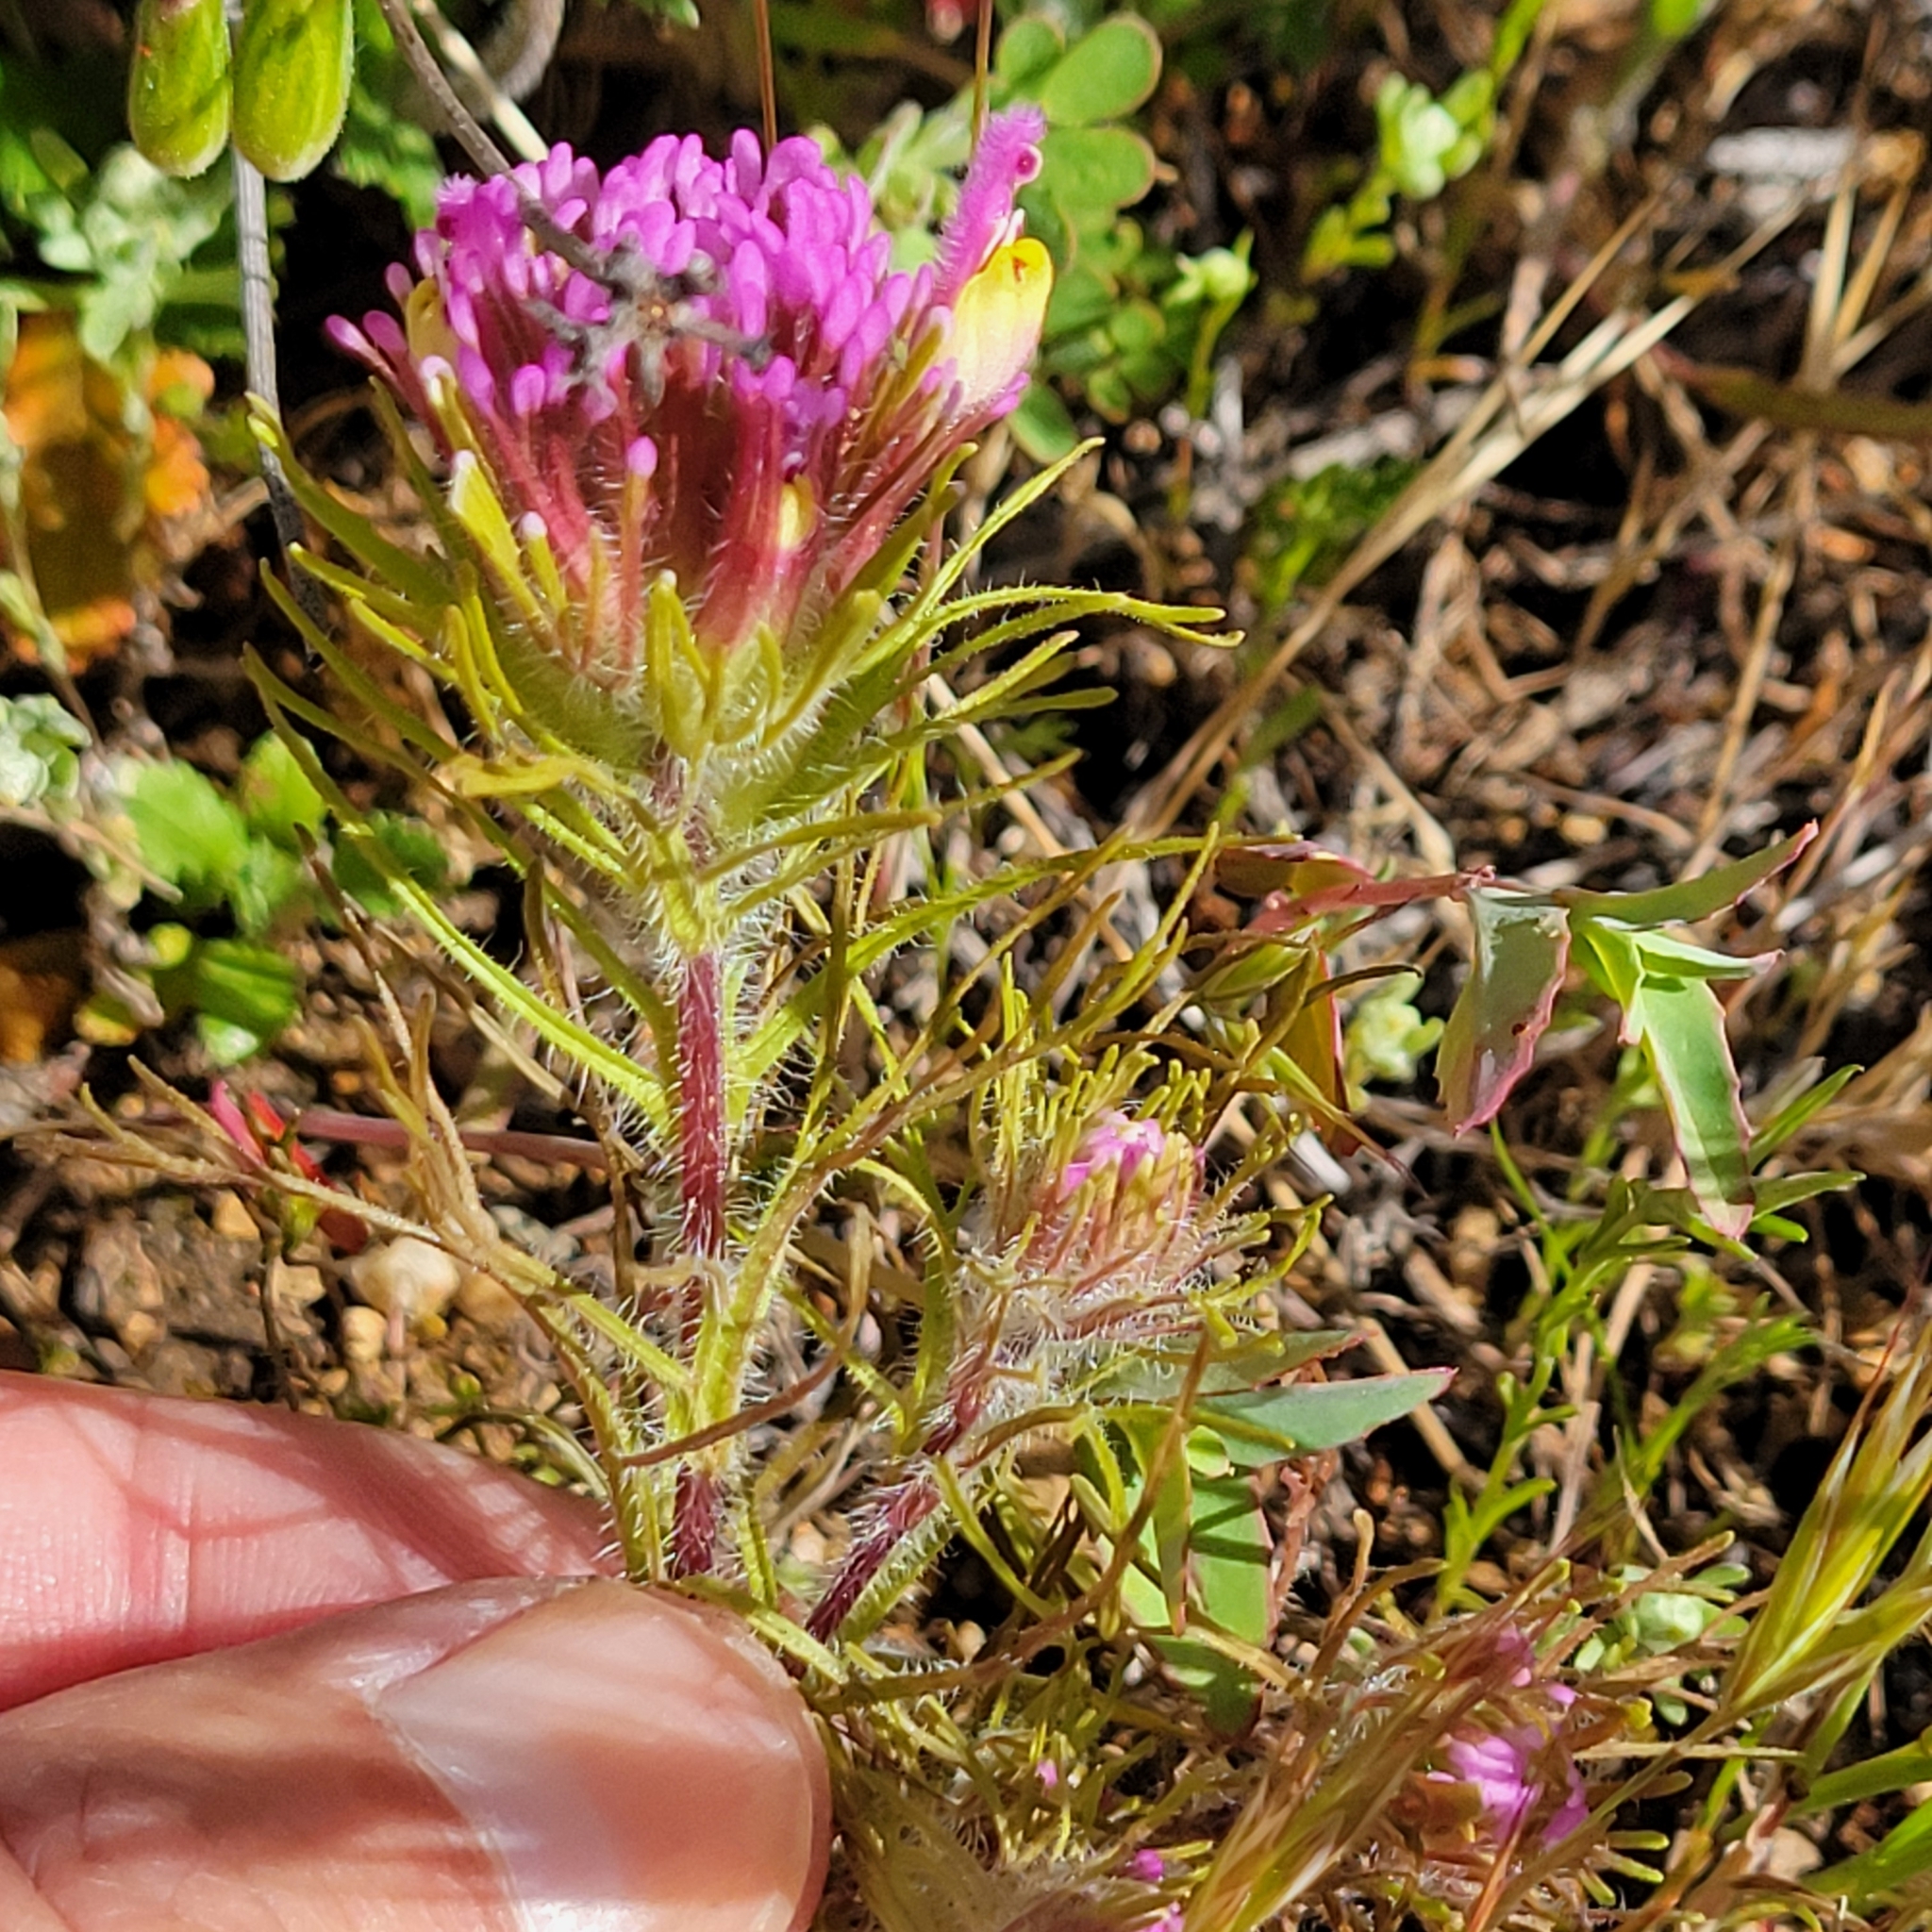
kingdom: Plantae
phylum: Tracheophyta
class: Magnoliopsida
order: Lamiales
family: Orobanchaceae
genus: Castilleja
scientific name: Castilleja exserta
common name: Purple owl-clover
